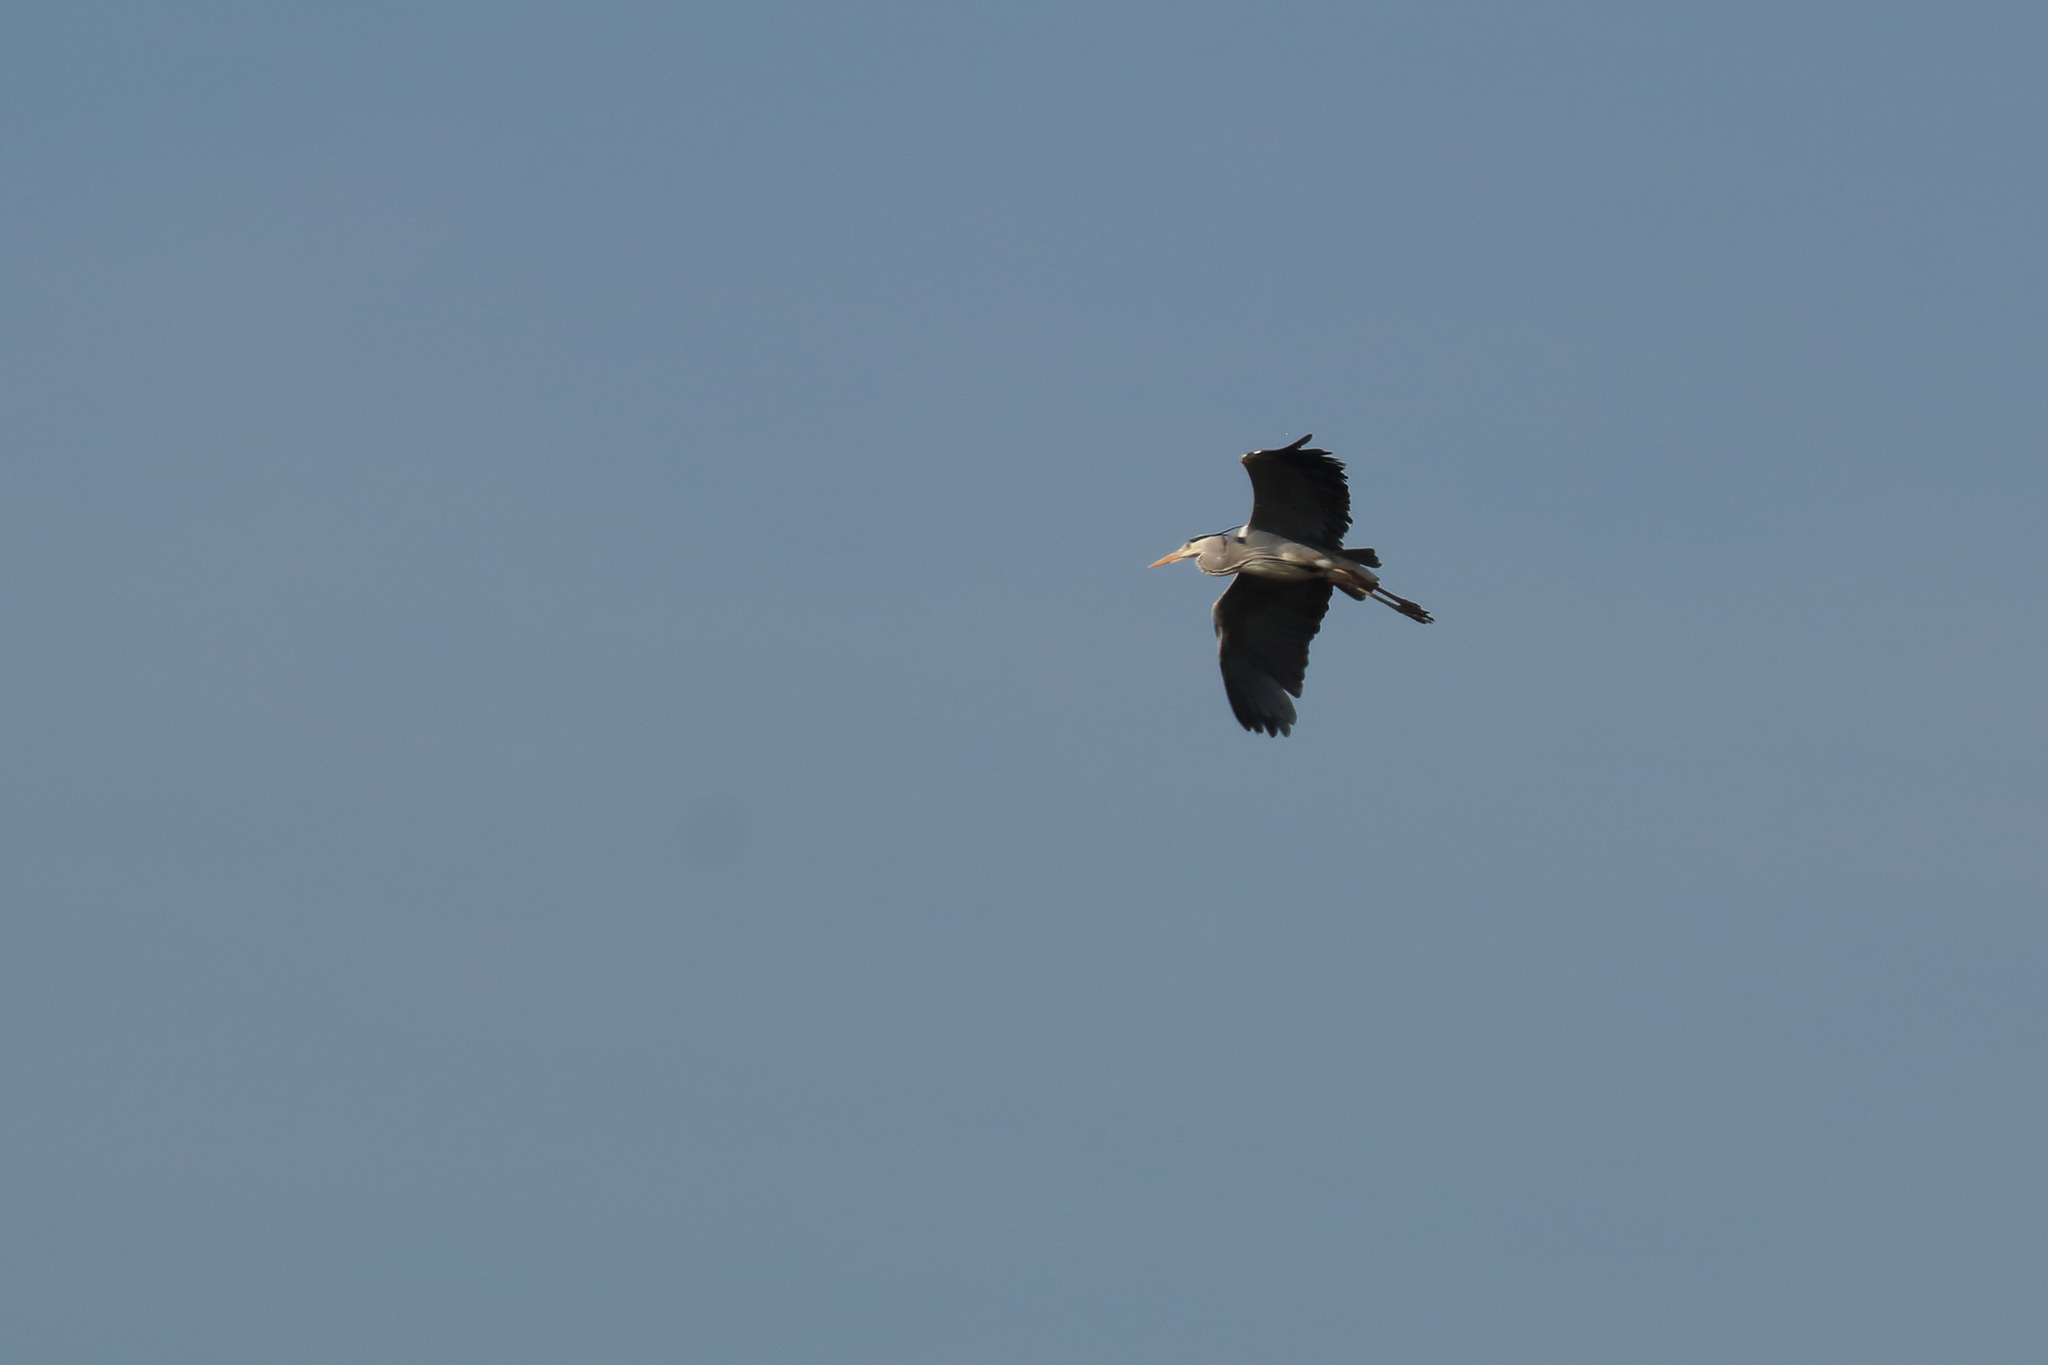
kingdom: Animalia
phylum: Chordata
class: Aves
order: Pelecaniformes
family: Ardeidae
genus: Ardea
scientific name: Ardea cinerea
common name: Grey heron
